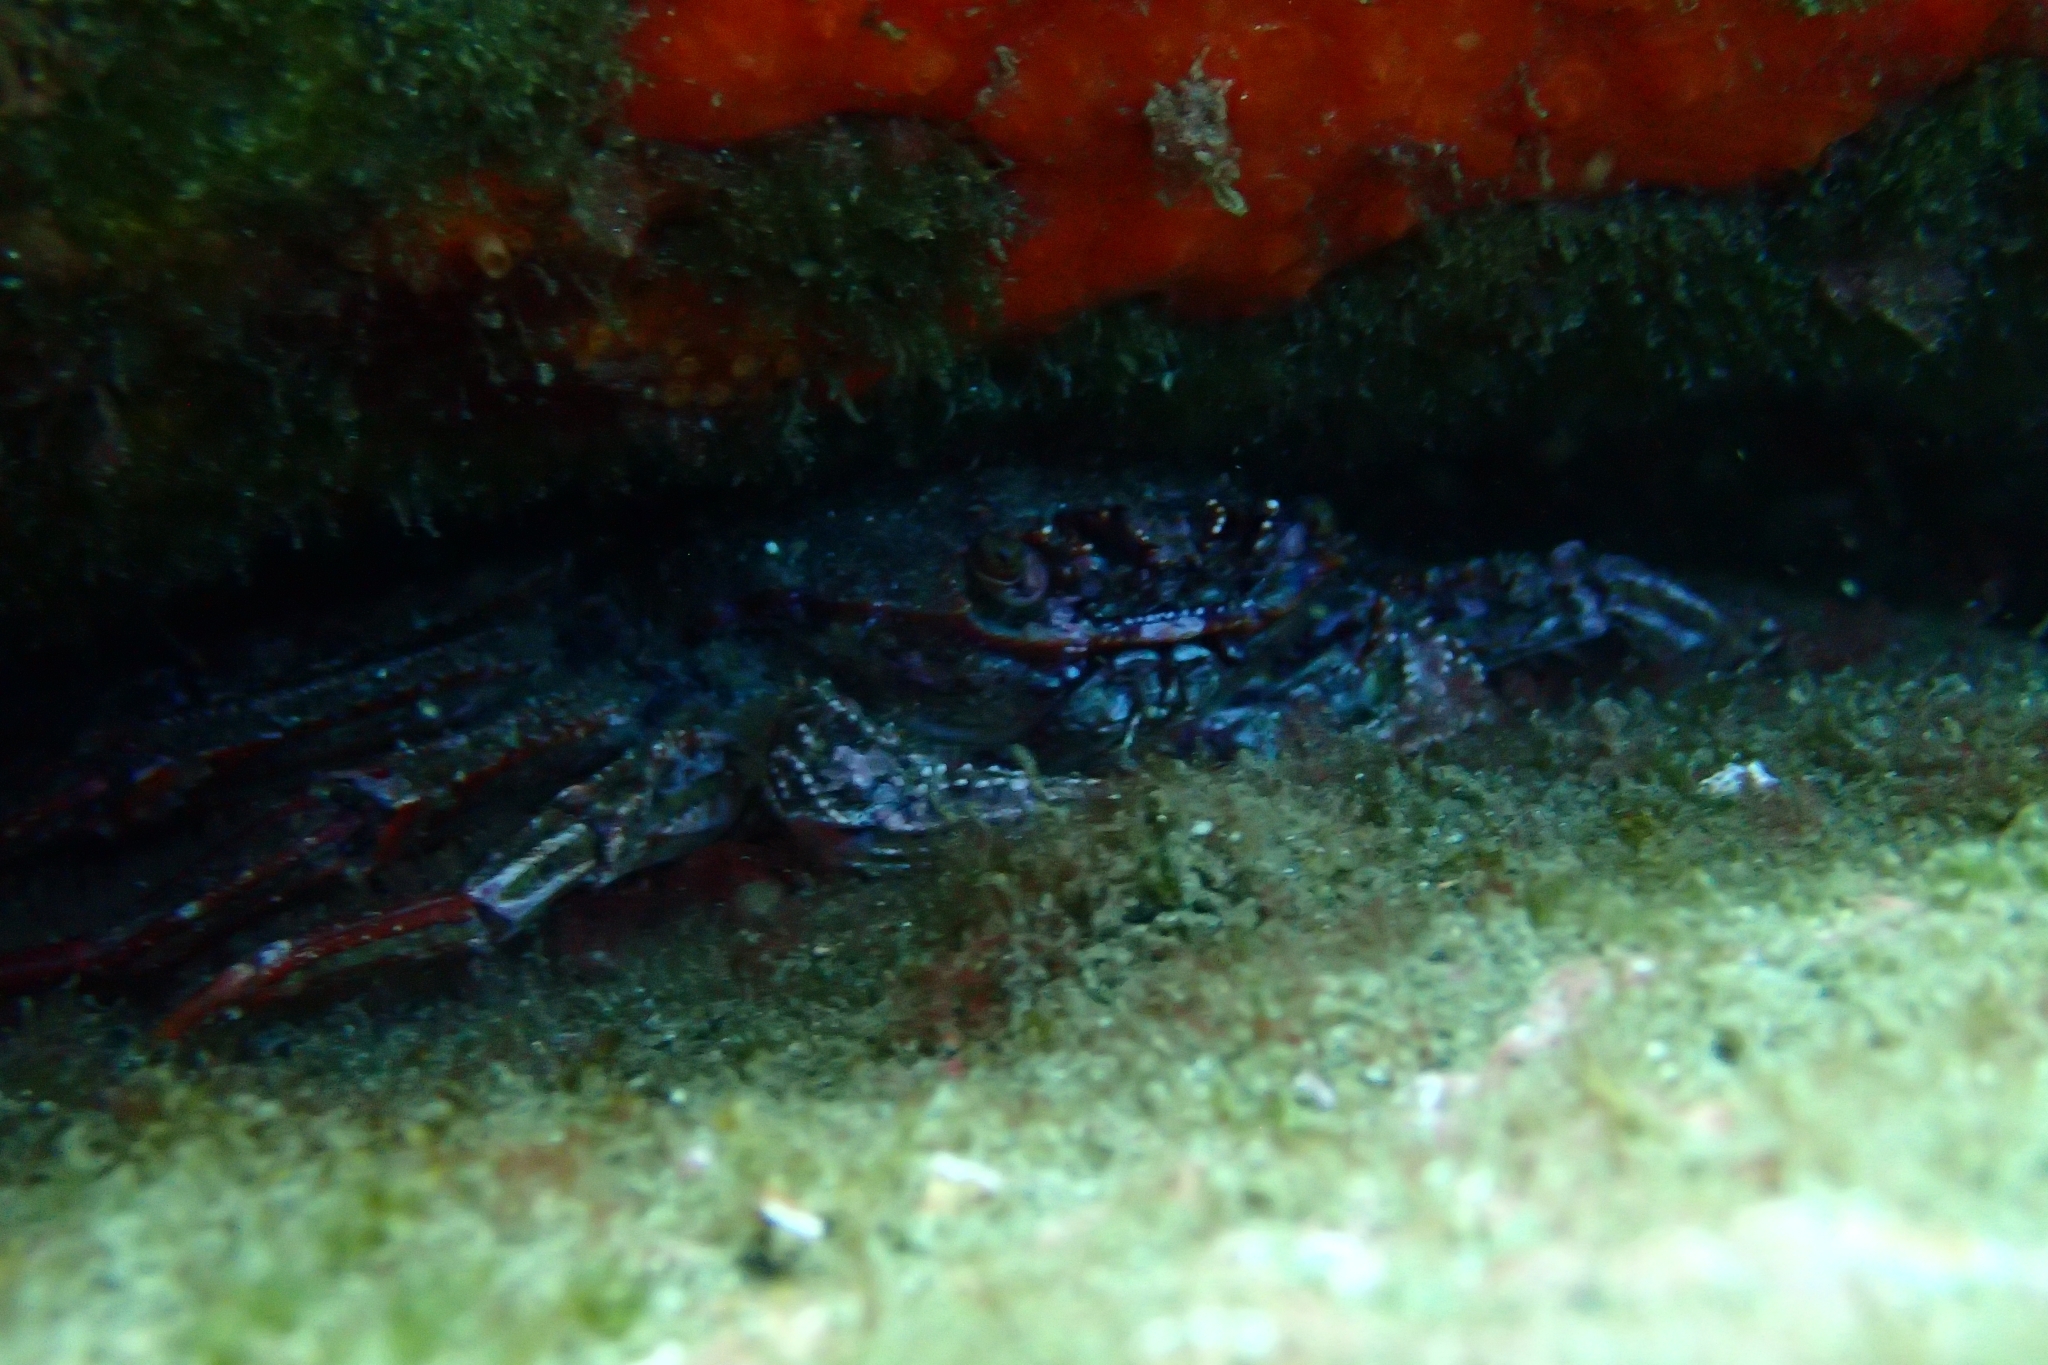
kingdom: Animalia
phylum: Arthropoda
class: Malacostraca
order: Decapoda
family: Plagusiidae
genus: Guinusia
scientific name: Guinusia chabrus
